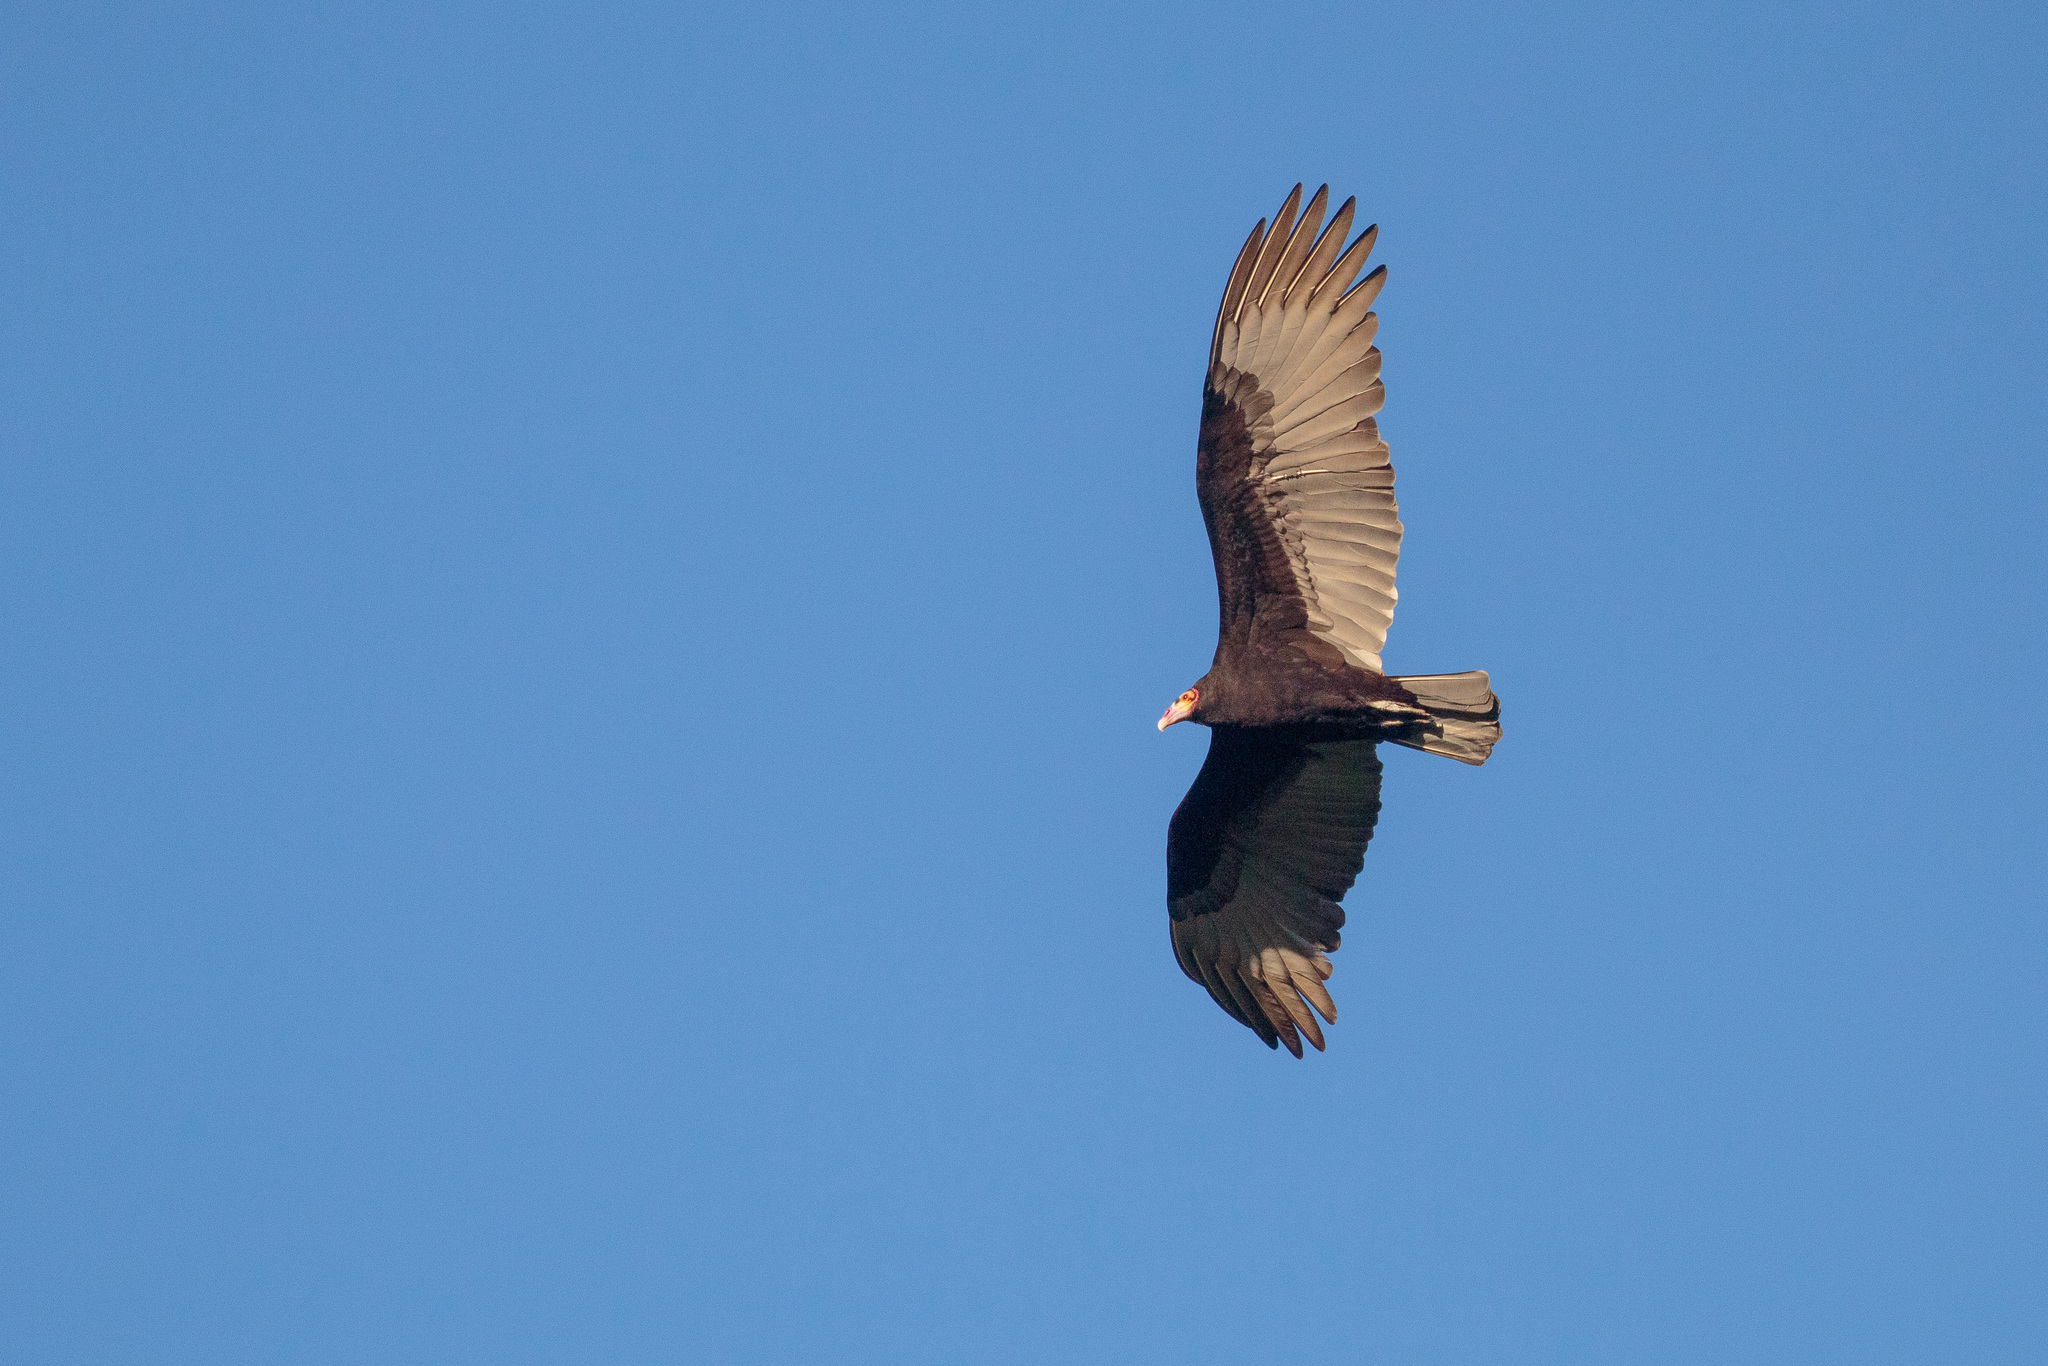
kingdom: Animalia
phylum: Chordata
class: Aves
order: Accipitriformes
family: Cathartidae
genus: Cathartes
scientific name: Cathartes burrovianus
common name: Lesser yellow-headed vulture
